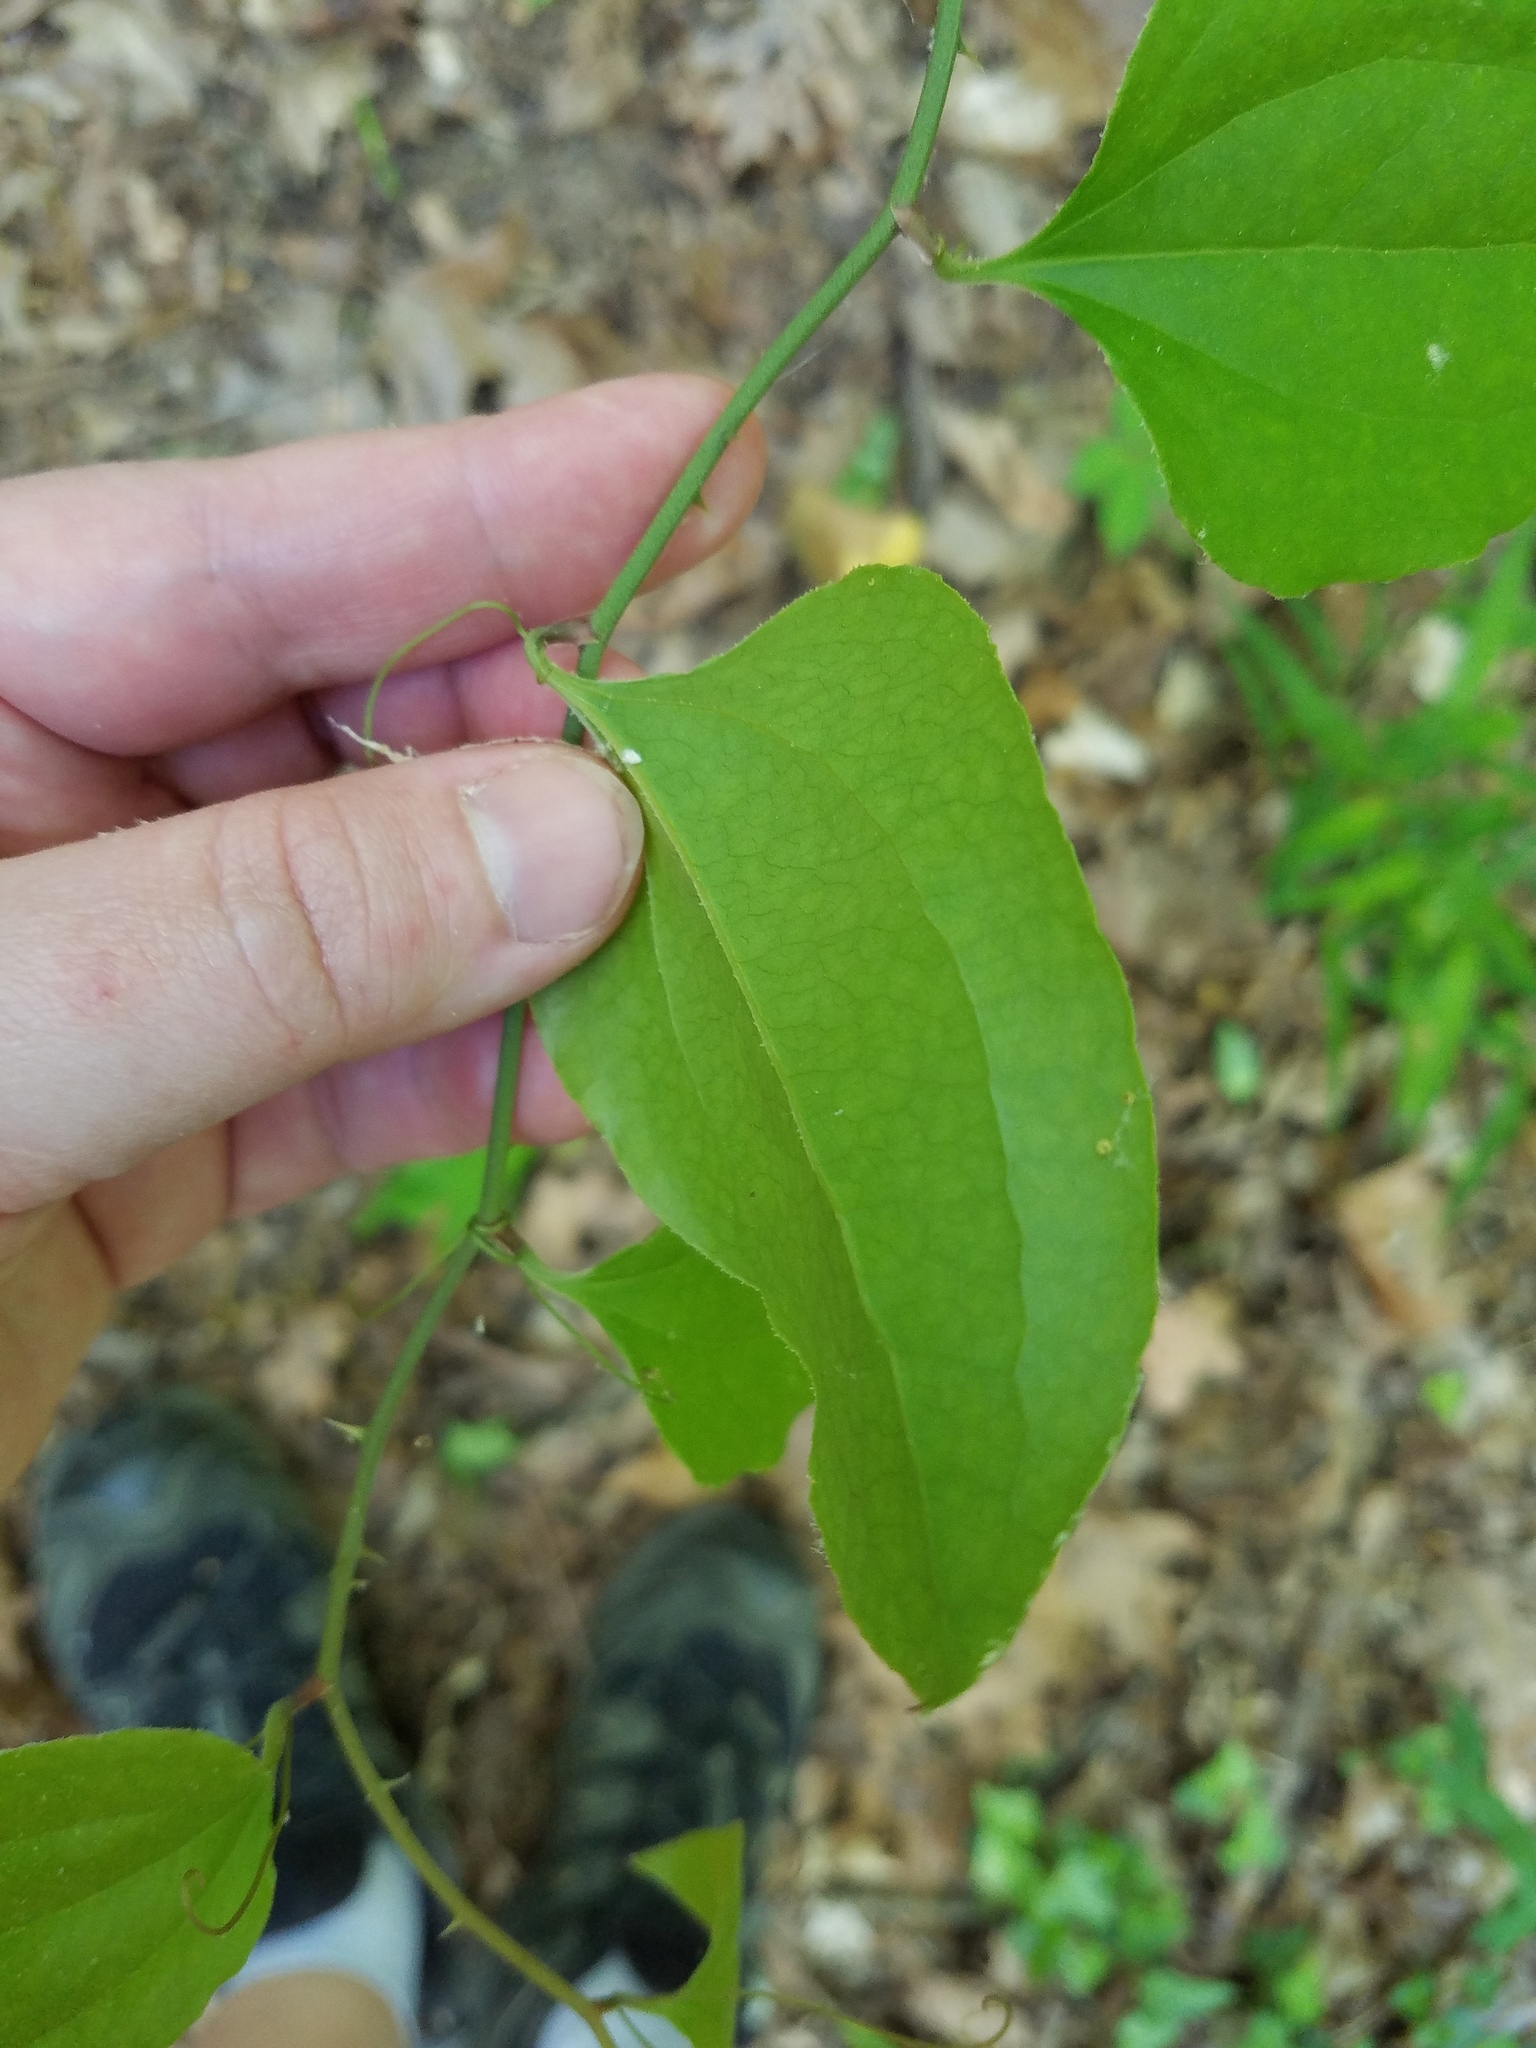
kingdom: Plantae
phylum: Tracheophyta
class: Liliopsida
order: Liliales
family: Smilacaceae
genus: Smilax
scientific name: Smilax rotundifolia
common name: Bullbriar
